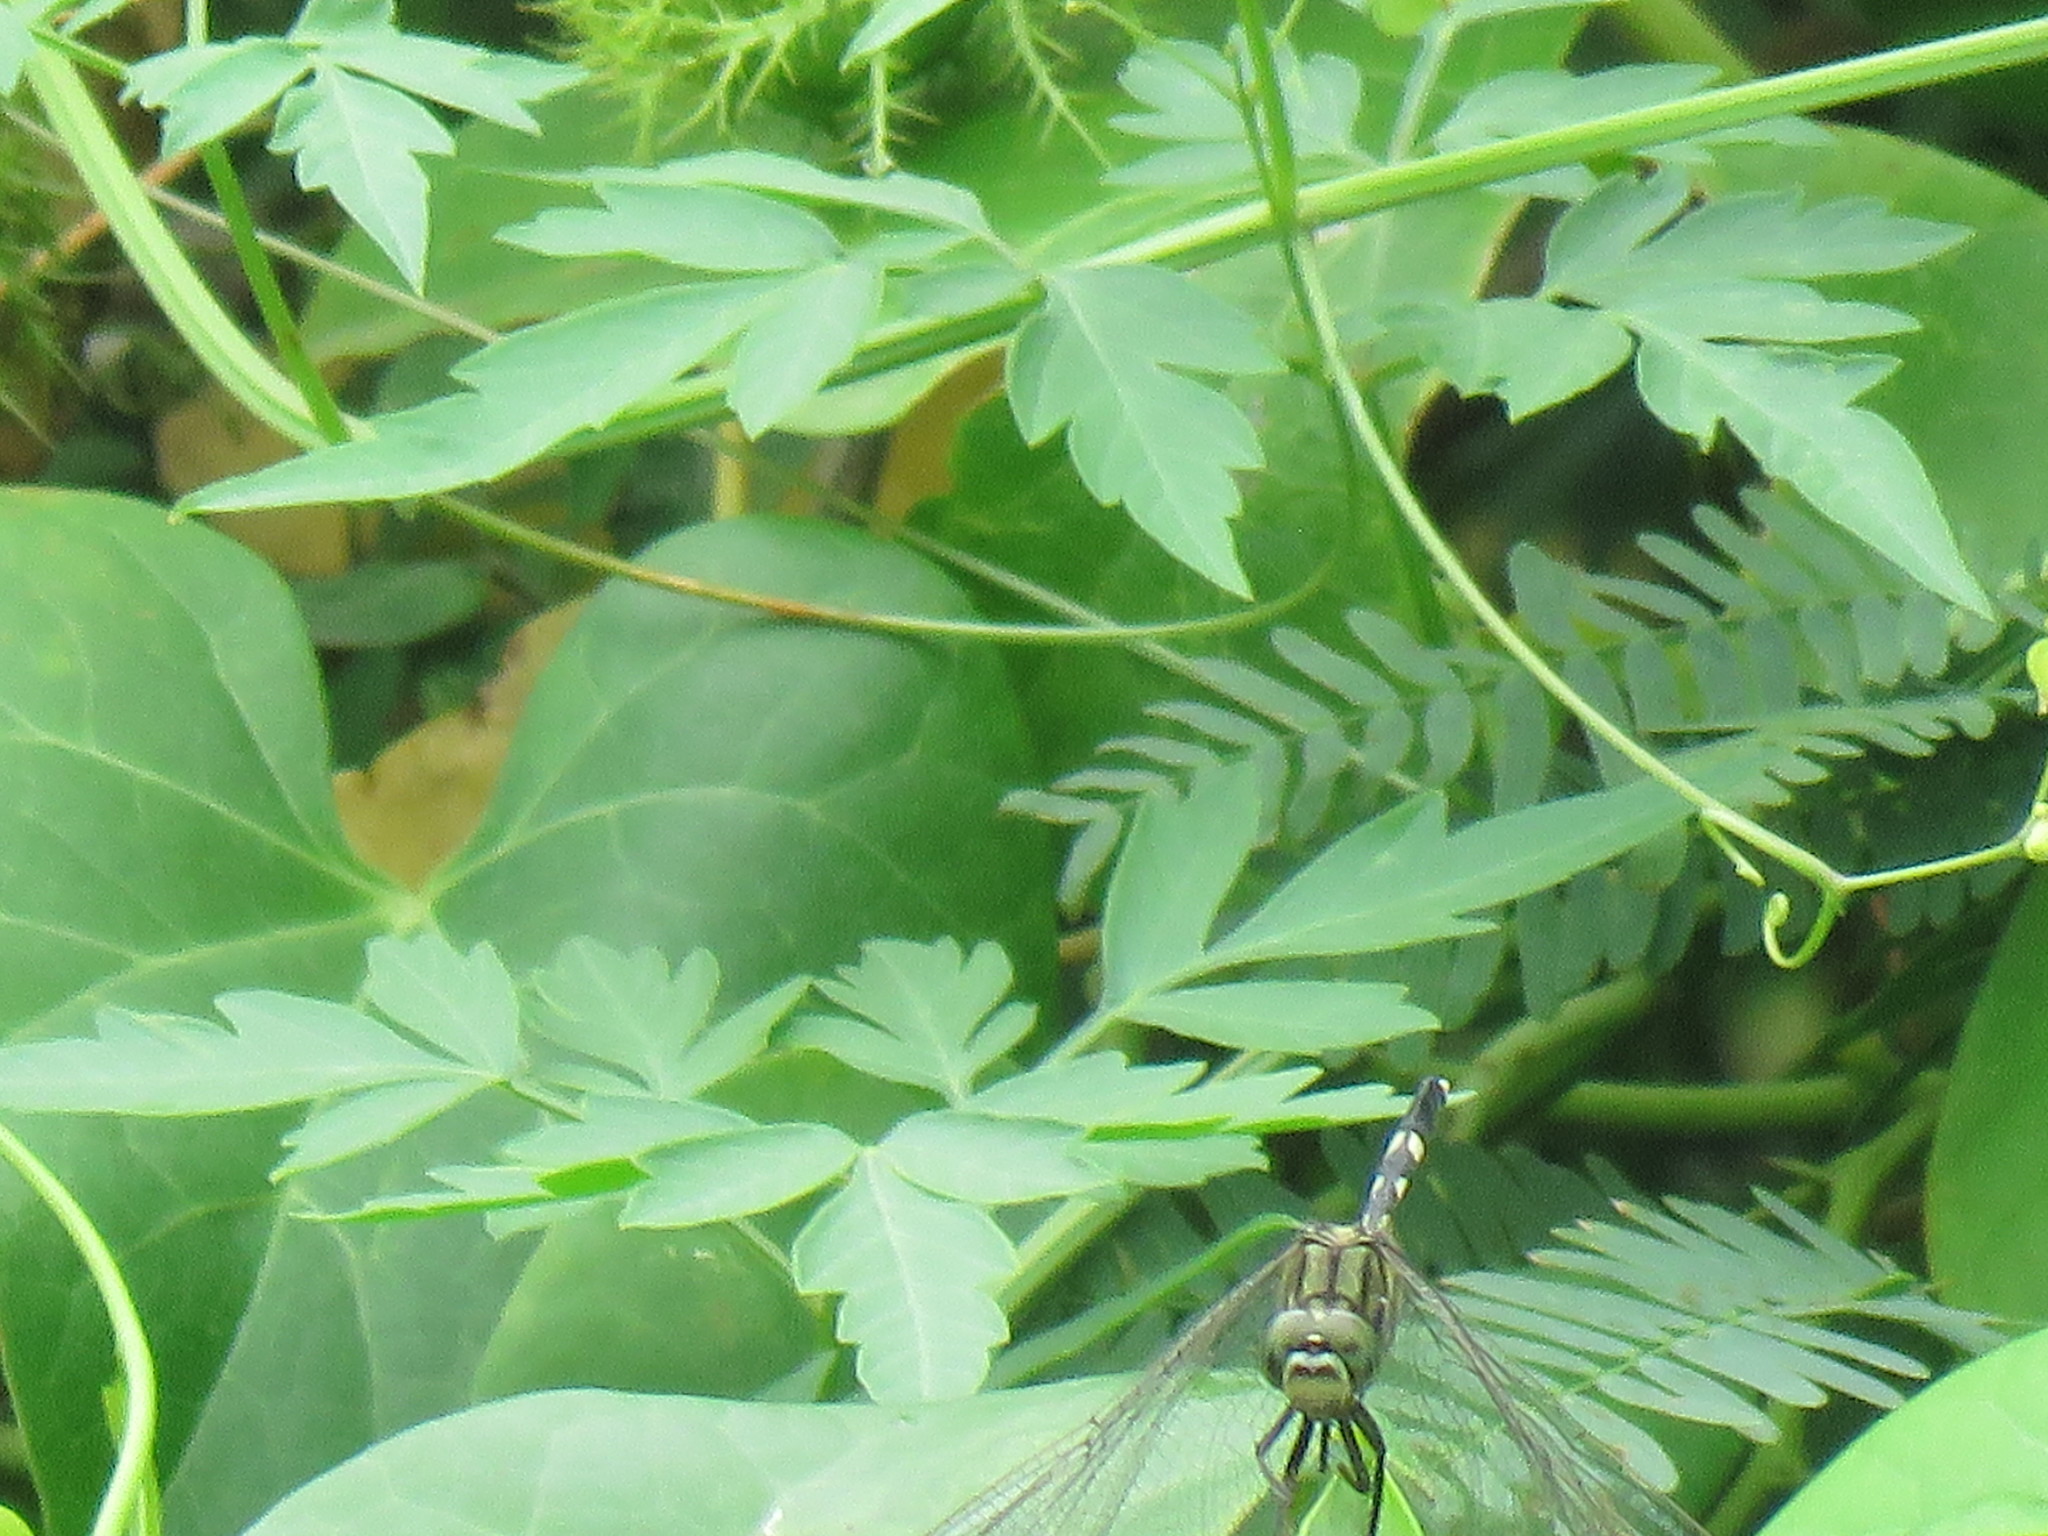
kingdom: Animalia
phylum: Arthropoda
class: Insecta
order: Odonata
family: Libellulidae
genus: Orthetrum
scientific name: Orthetrum sabina
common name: Slender skimmer
